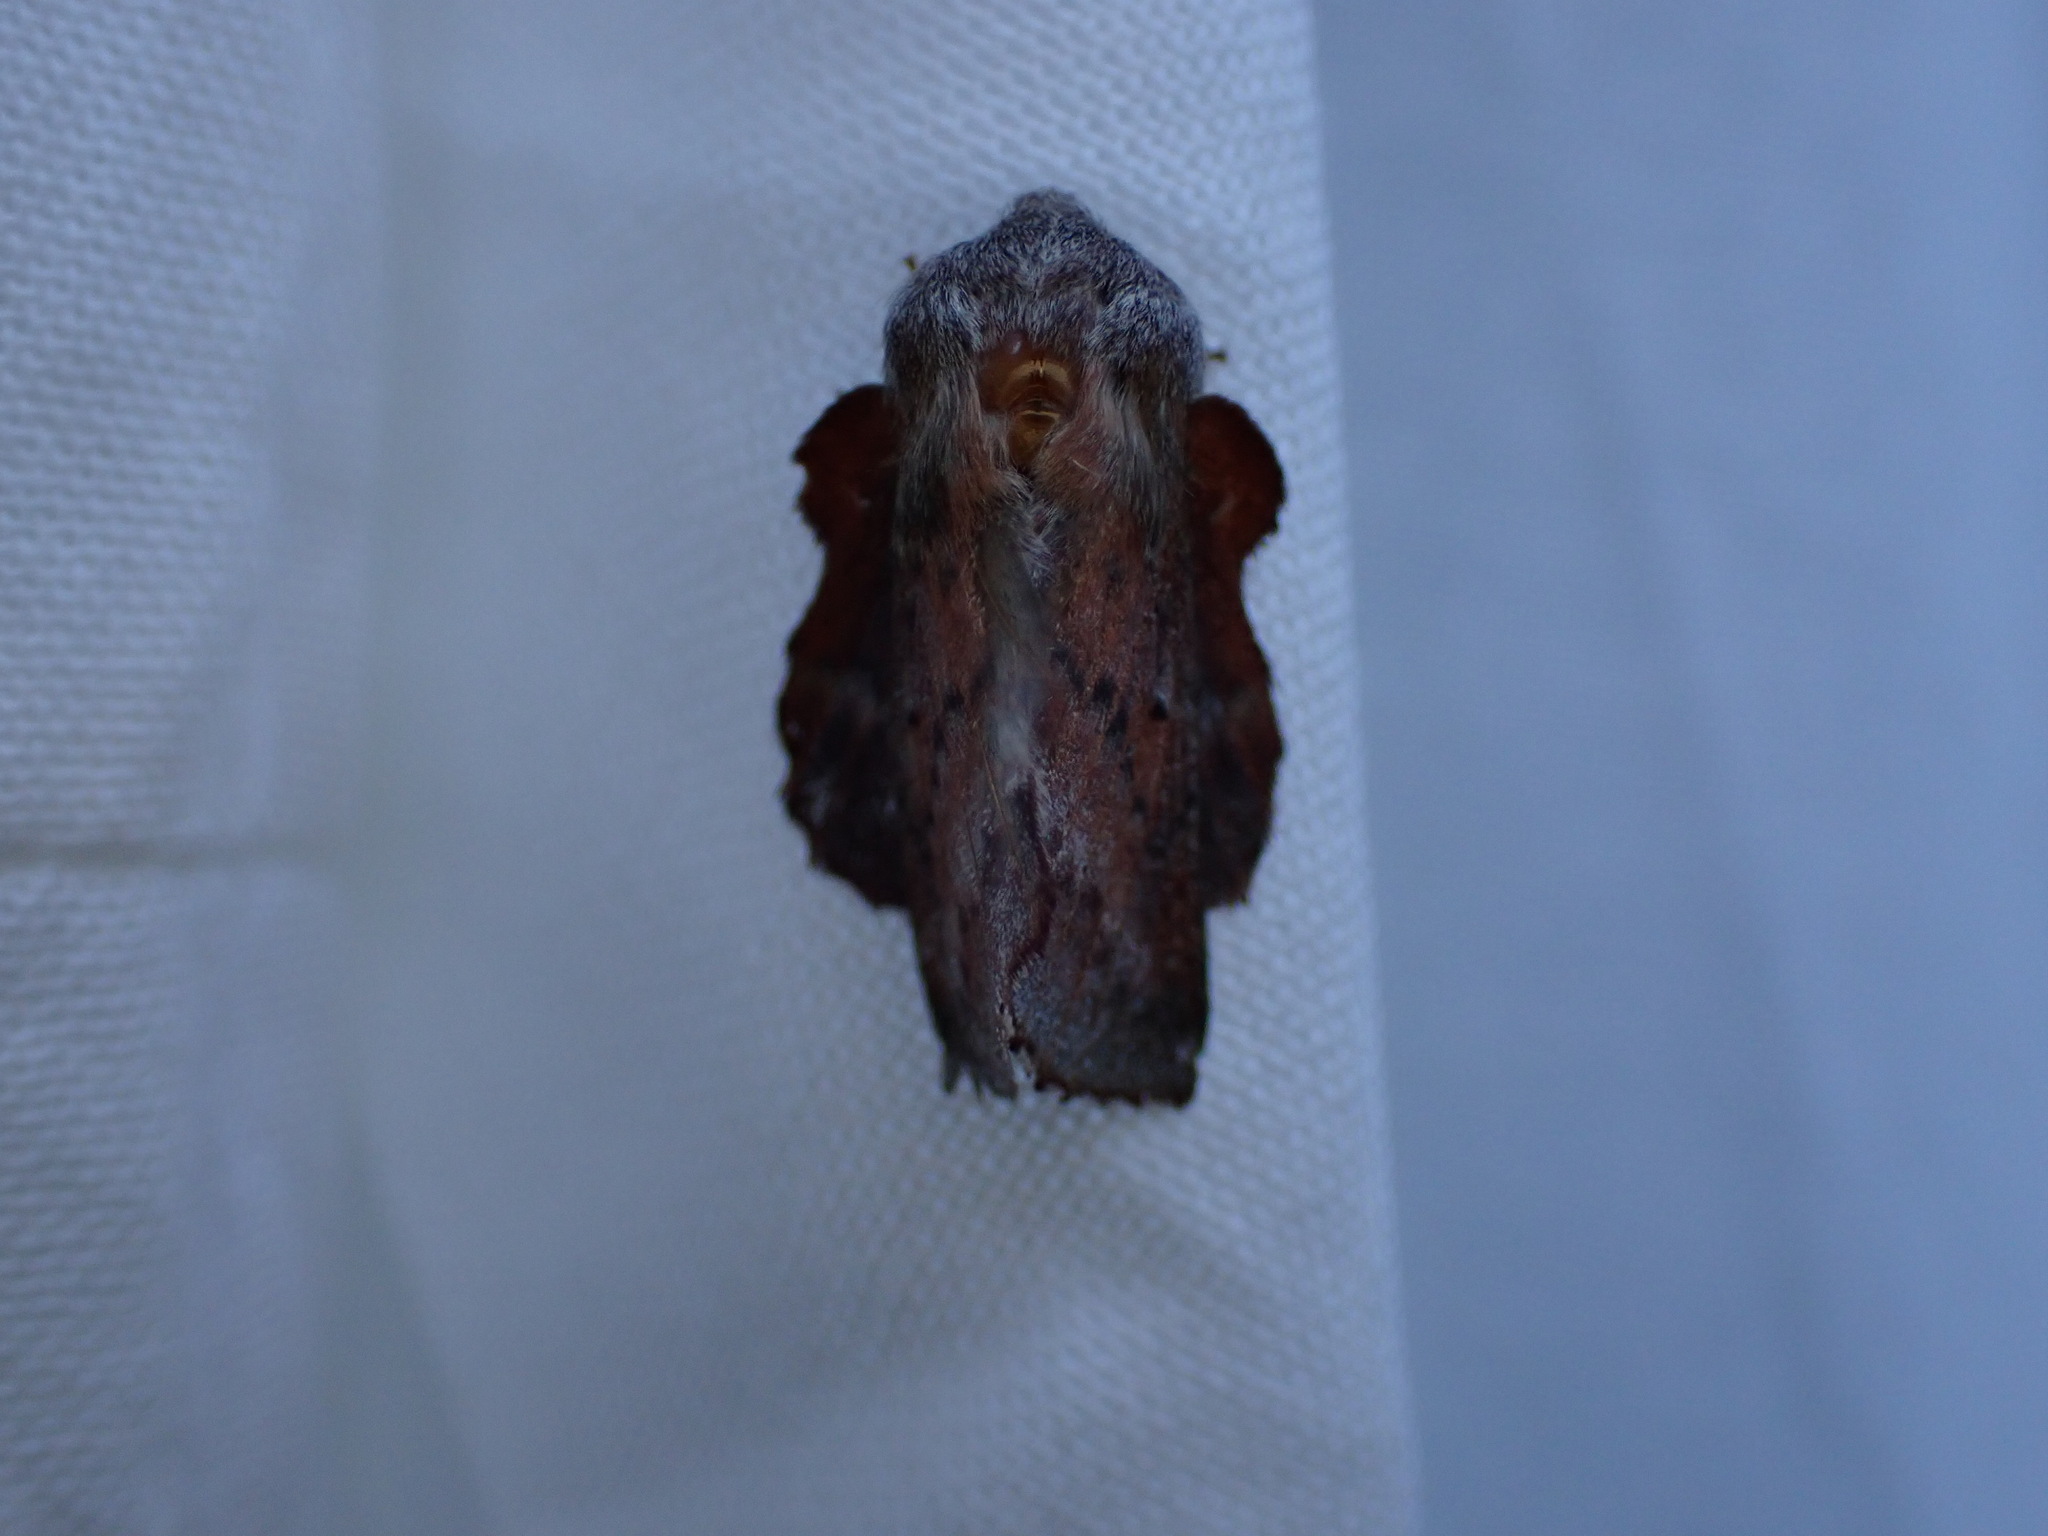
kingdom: Animalia
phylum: Arthropoda
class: Insecta
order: Lepidoptera
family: Lasiocampidae
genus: Phyllodesma
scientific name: Phyllodesma americana
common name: American lappet moth
